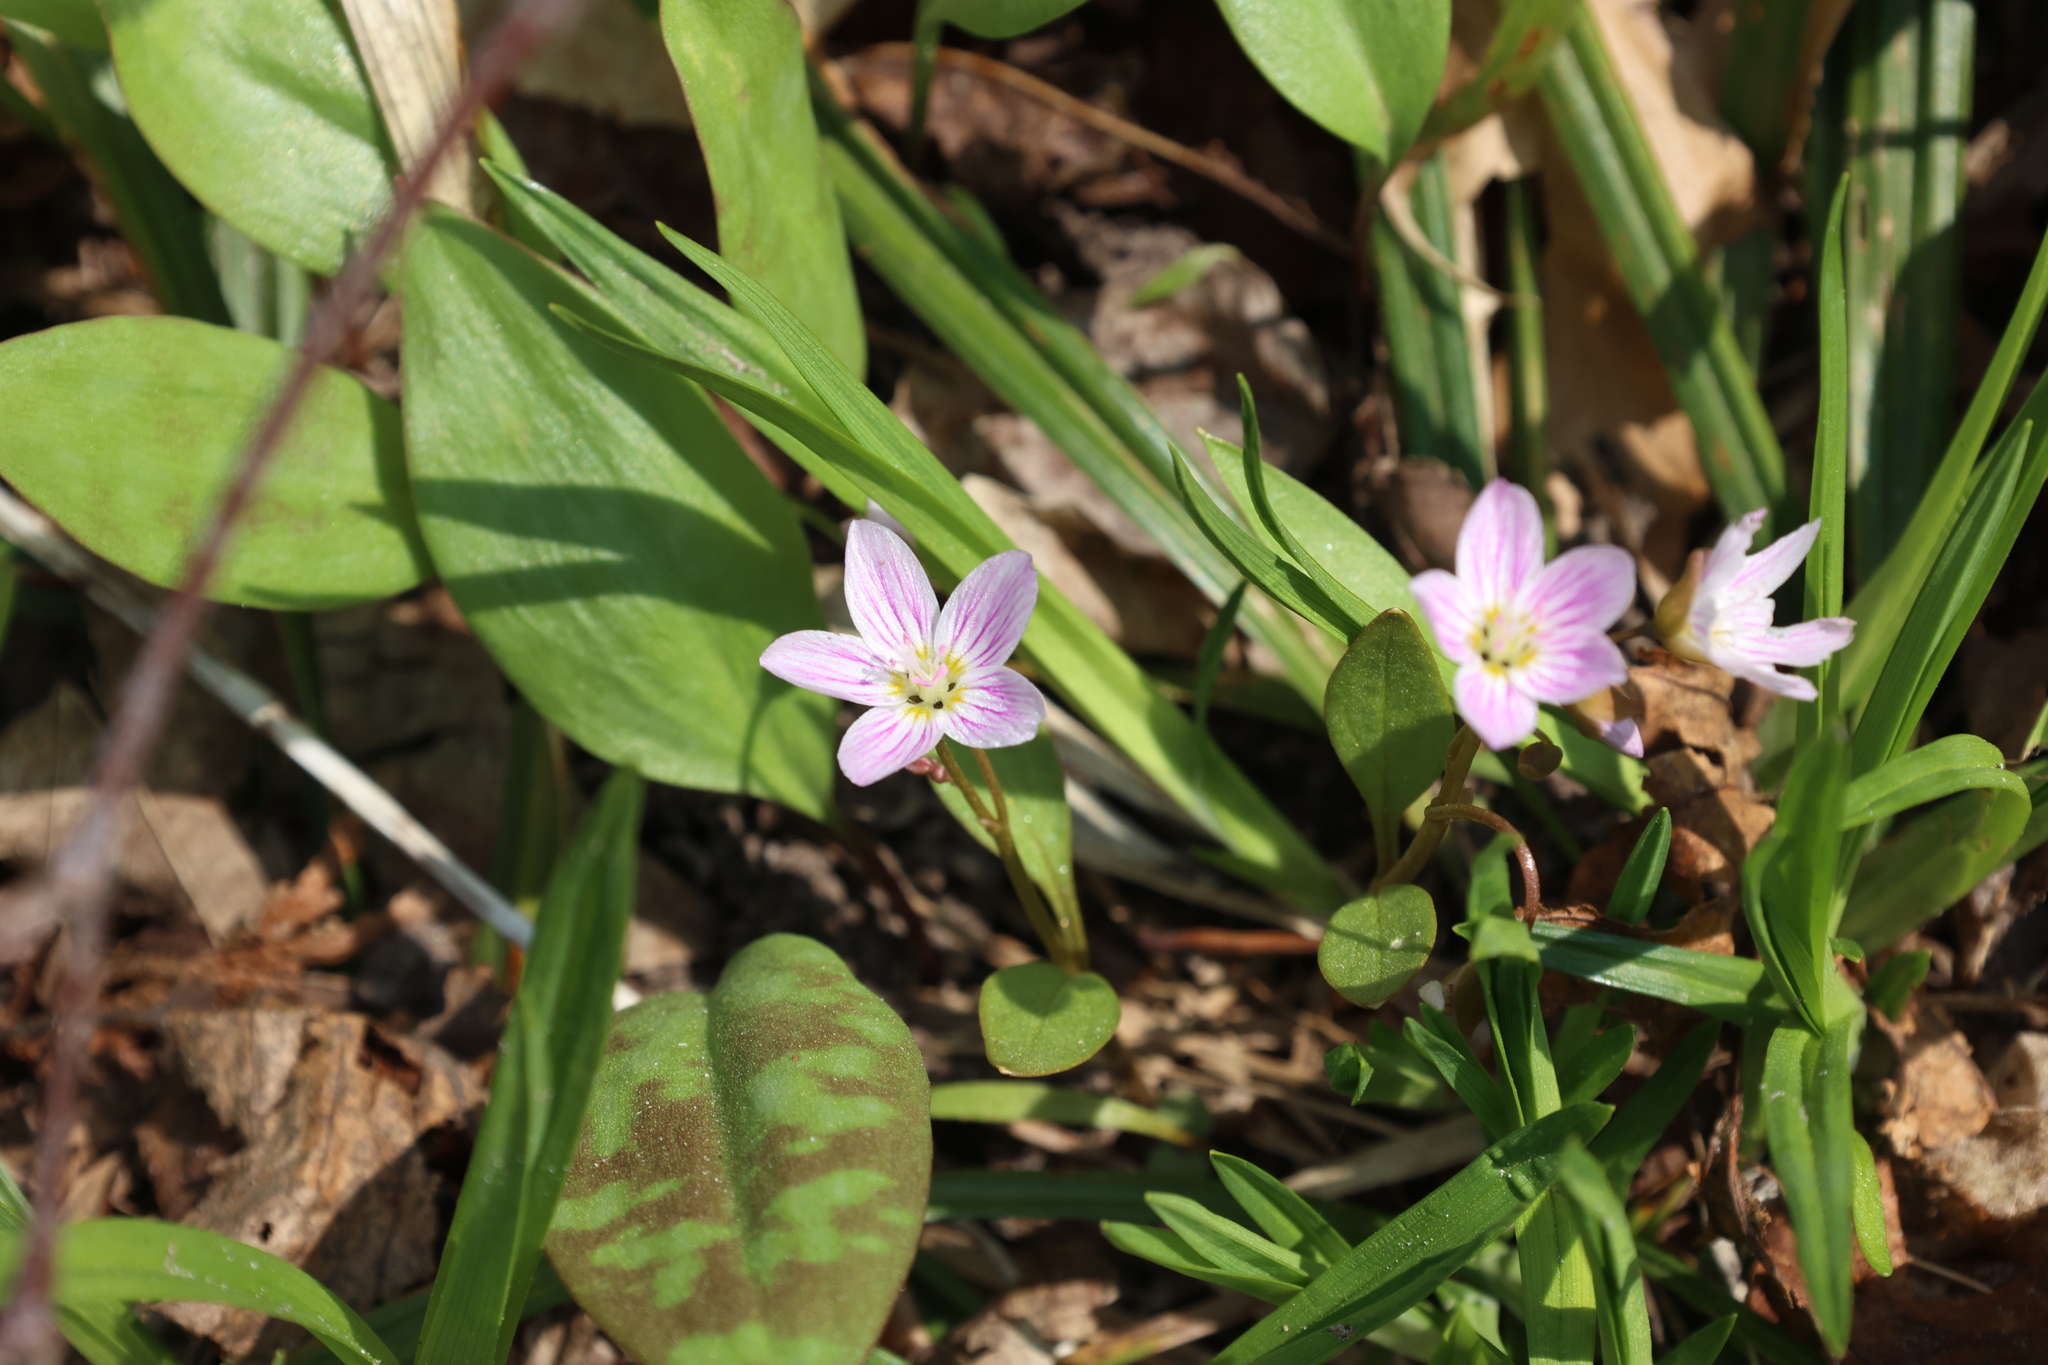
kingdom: Plantae
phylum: Tracheophyta
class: Magnoliopsida
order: Caryophyllales
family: Montiaceae
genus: Claytonia
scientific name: Claytonia caroliniana
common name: Carolina spring beauty
